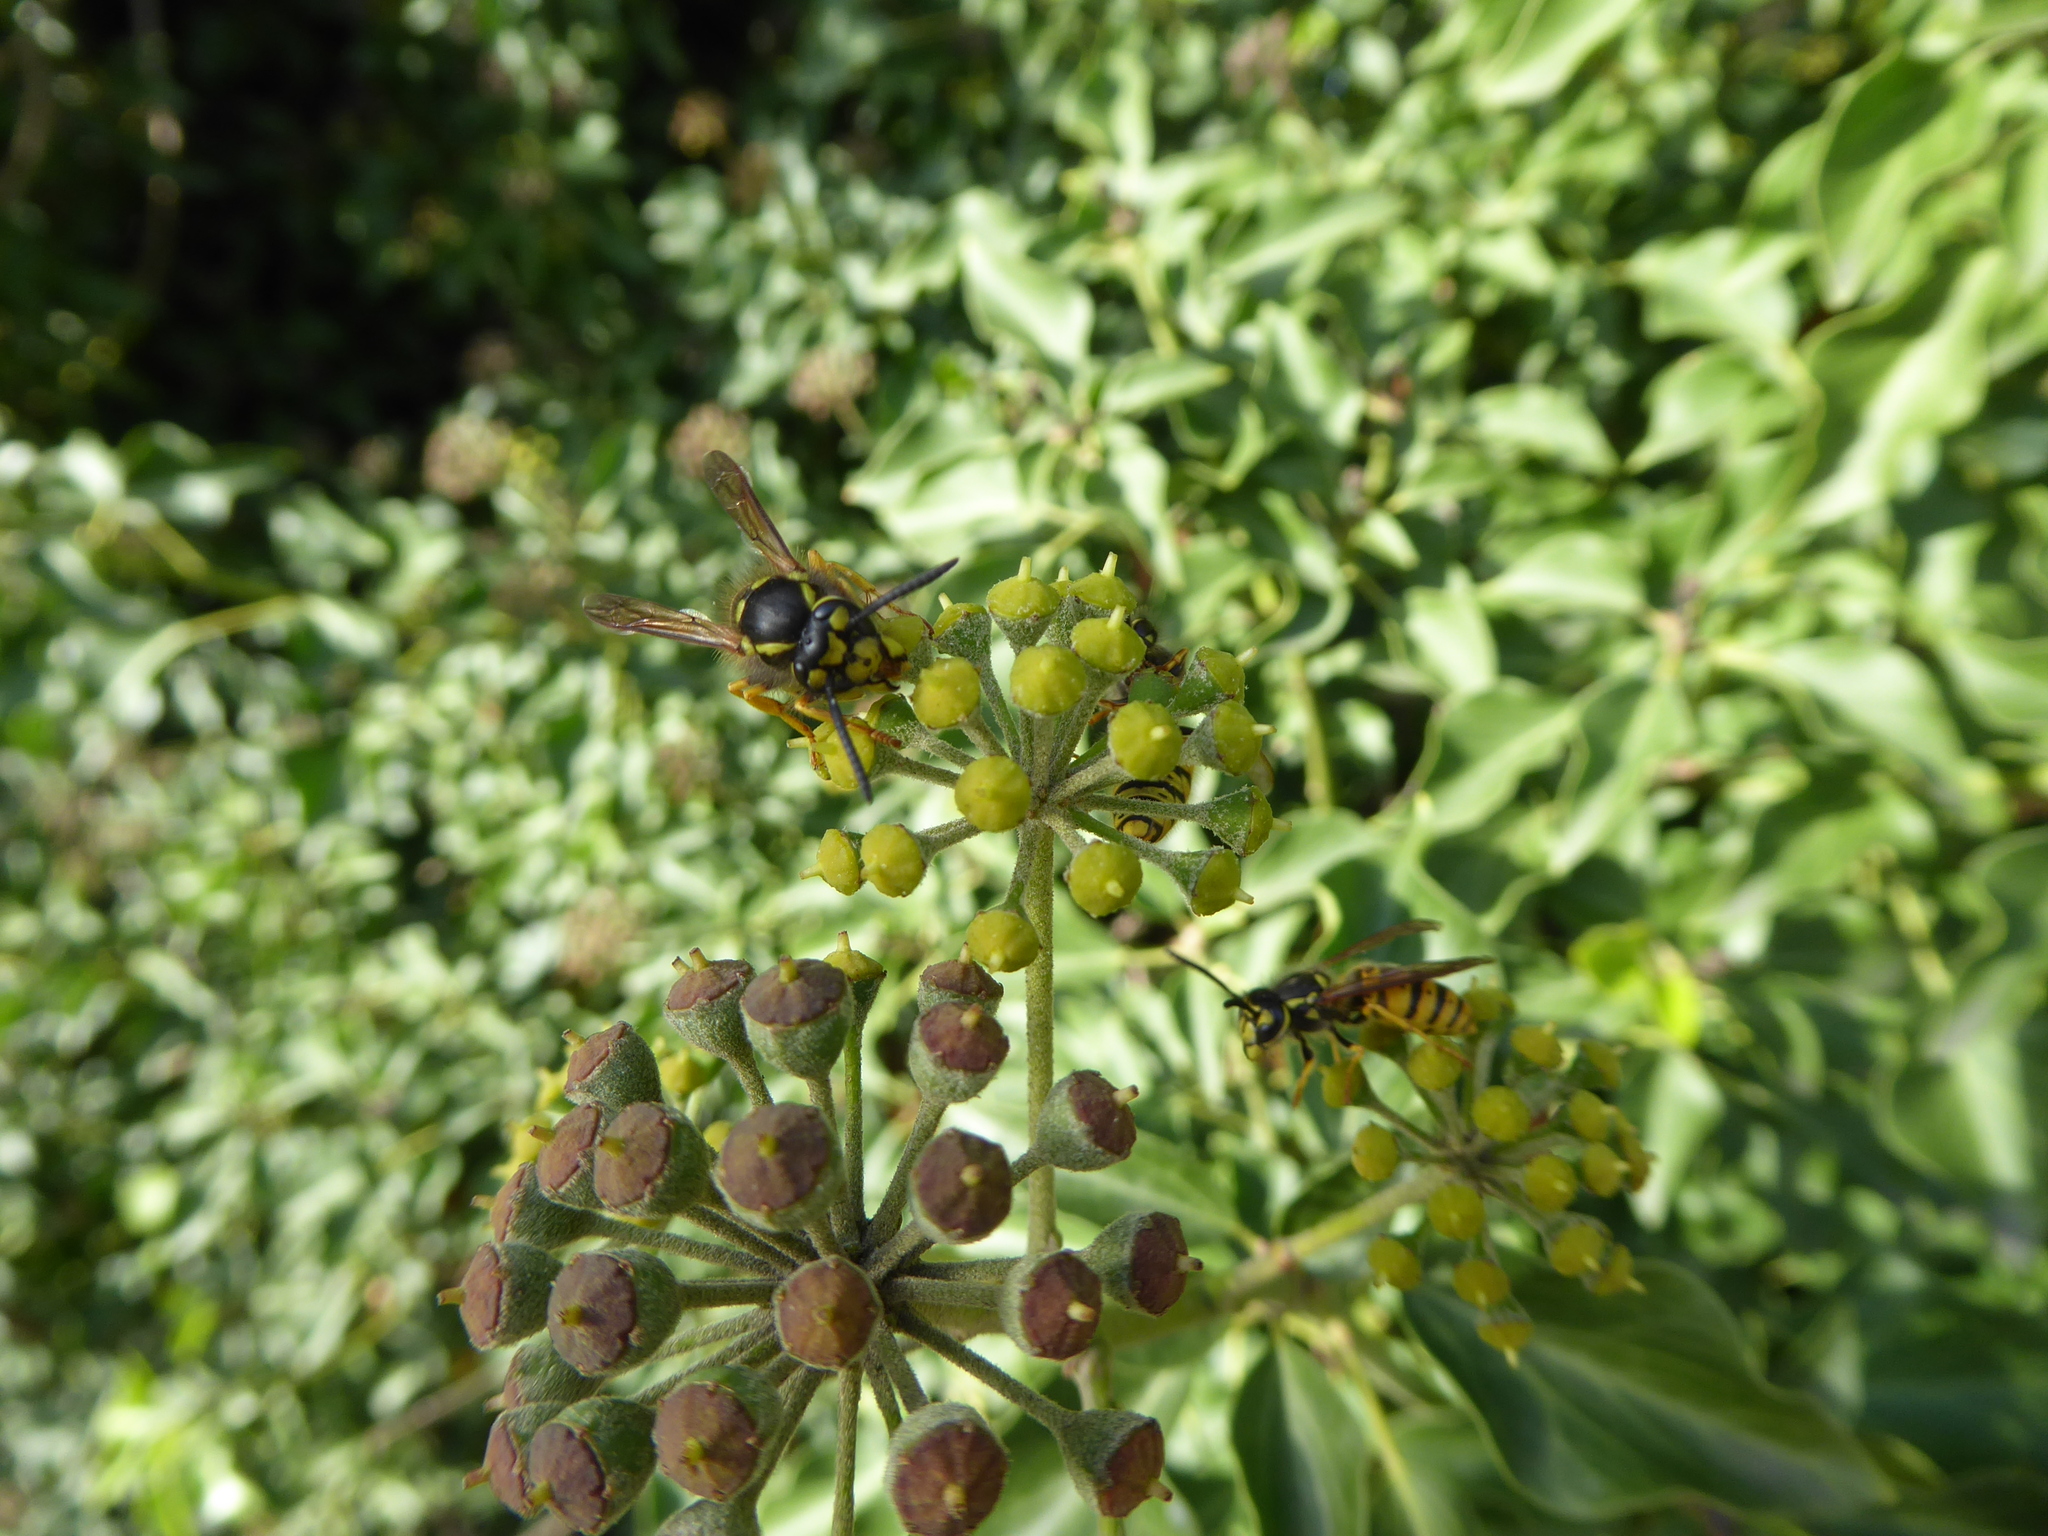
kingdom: Animalia
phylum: Arthropoda
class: Insecta
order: Hymenoptera
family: Vespidae
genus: Vespula
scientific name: Vespula germanica
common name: German wasp
